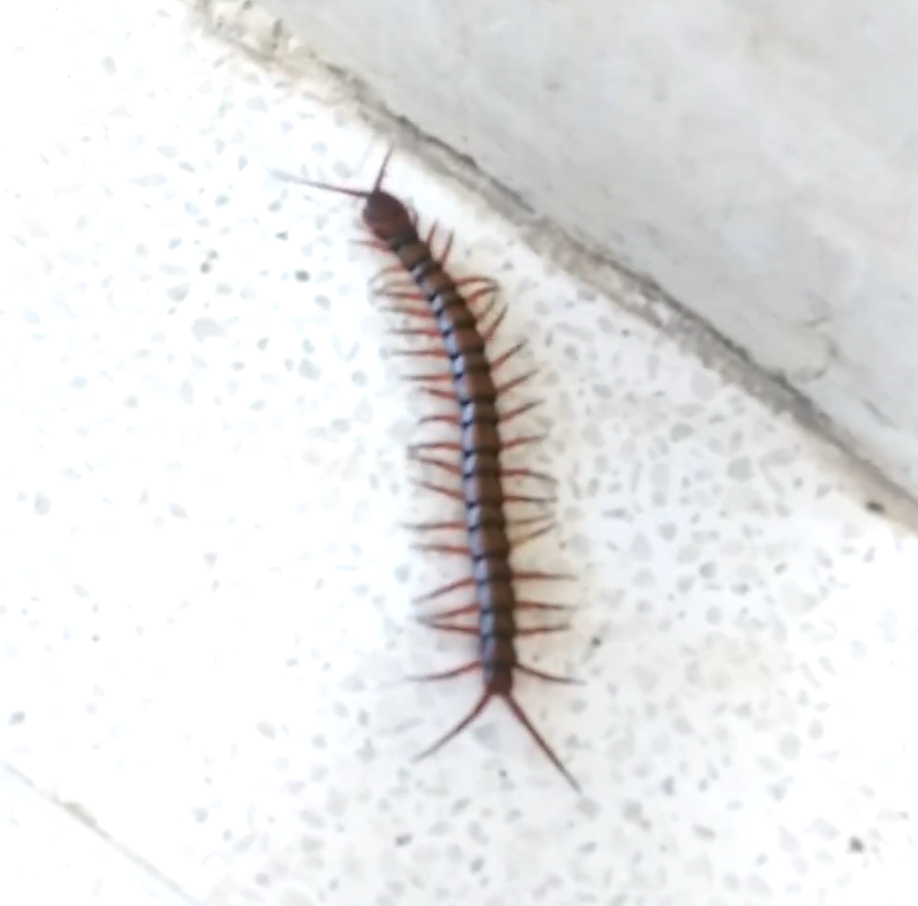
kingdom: Animalia
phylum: Arthropoda
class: Chilopoda
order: Scolopendromorpha
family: Scolopendridae
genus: Scolopendra
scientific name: Scolopendra subspinipes
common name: Centipede
